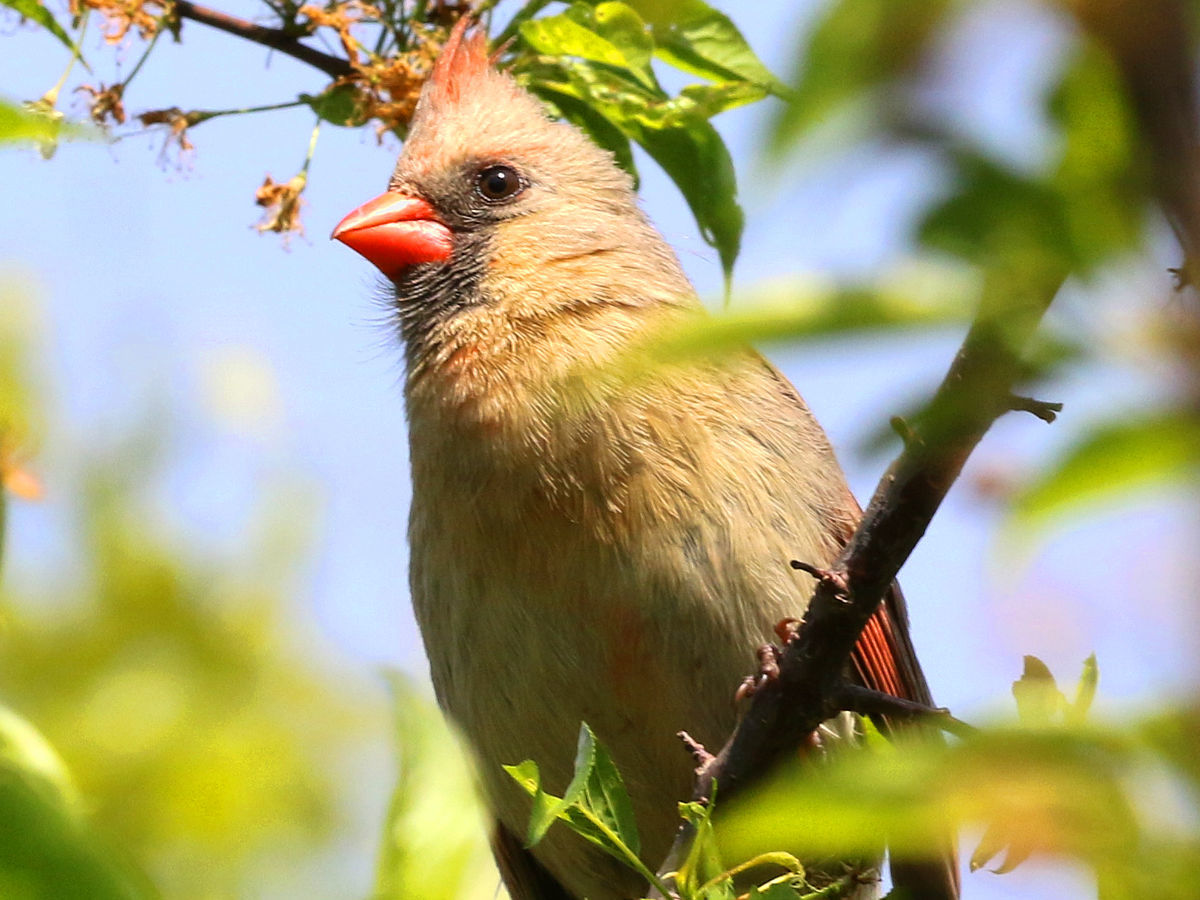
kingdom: Animalia
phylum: Chordata
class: Aves
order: Passeriformes
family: Cardinalidae
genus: Cardinalis
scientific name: Cardinalis cardinalis
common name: Northern cardinal
